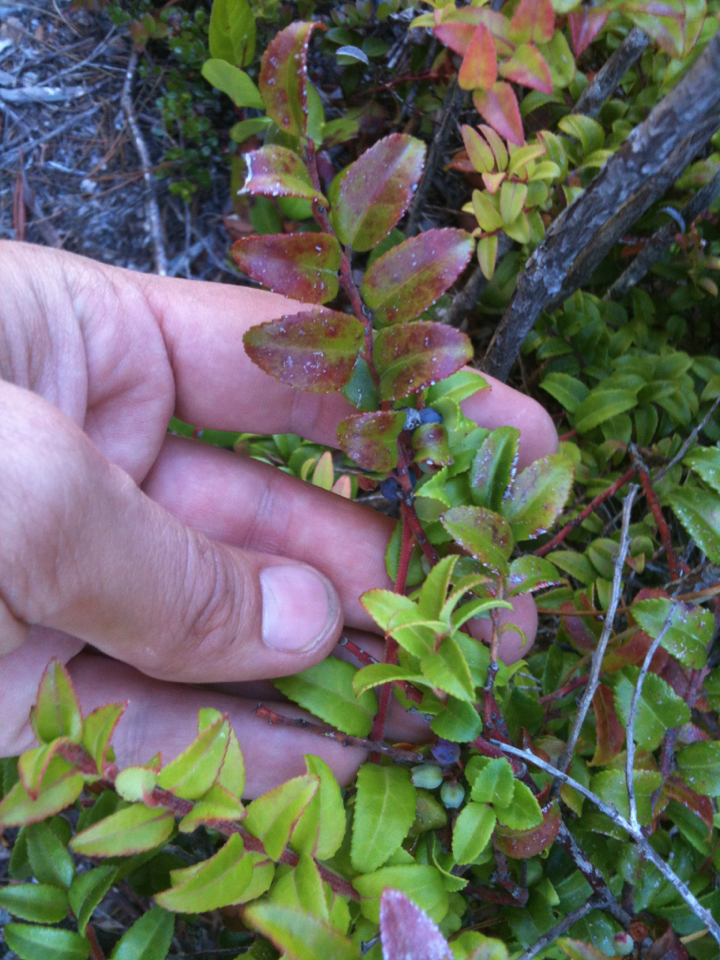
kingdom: Plantae
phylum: Tracheophyta
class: Magnoliopsida
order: Ericales
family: Ericaceae
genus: Vaccinium
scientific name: Vaccinium ovatum
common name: California-huckleberry
